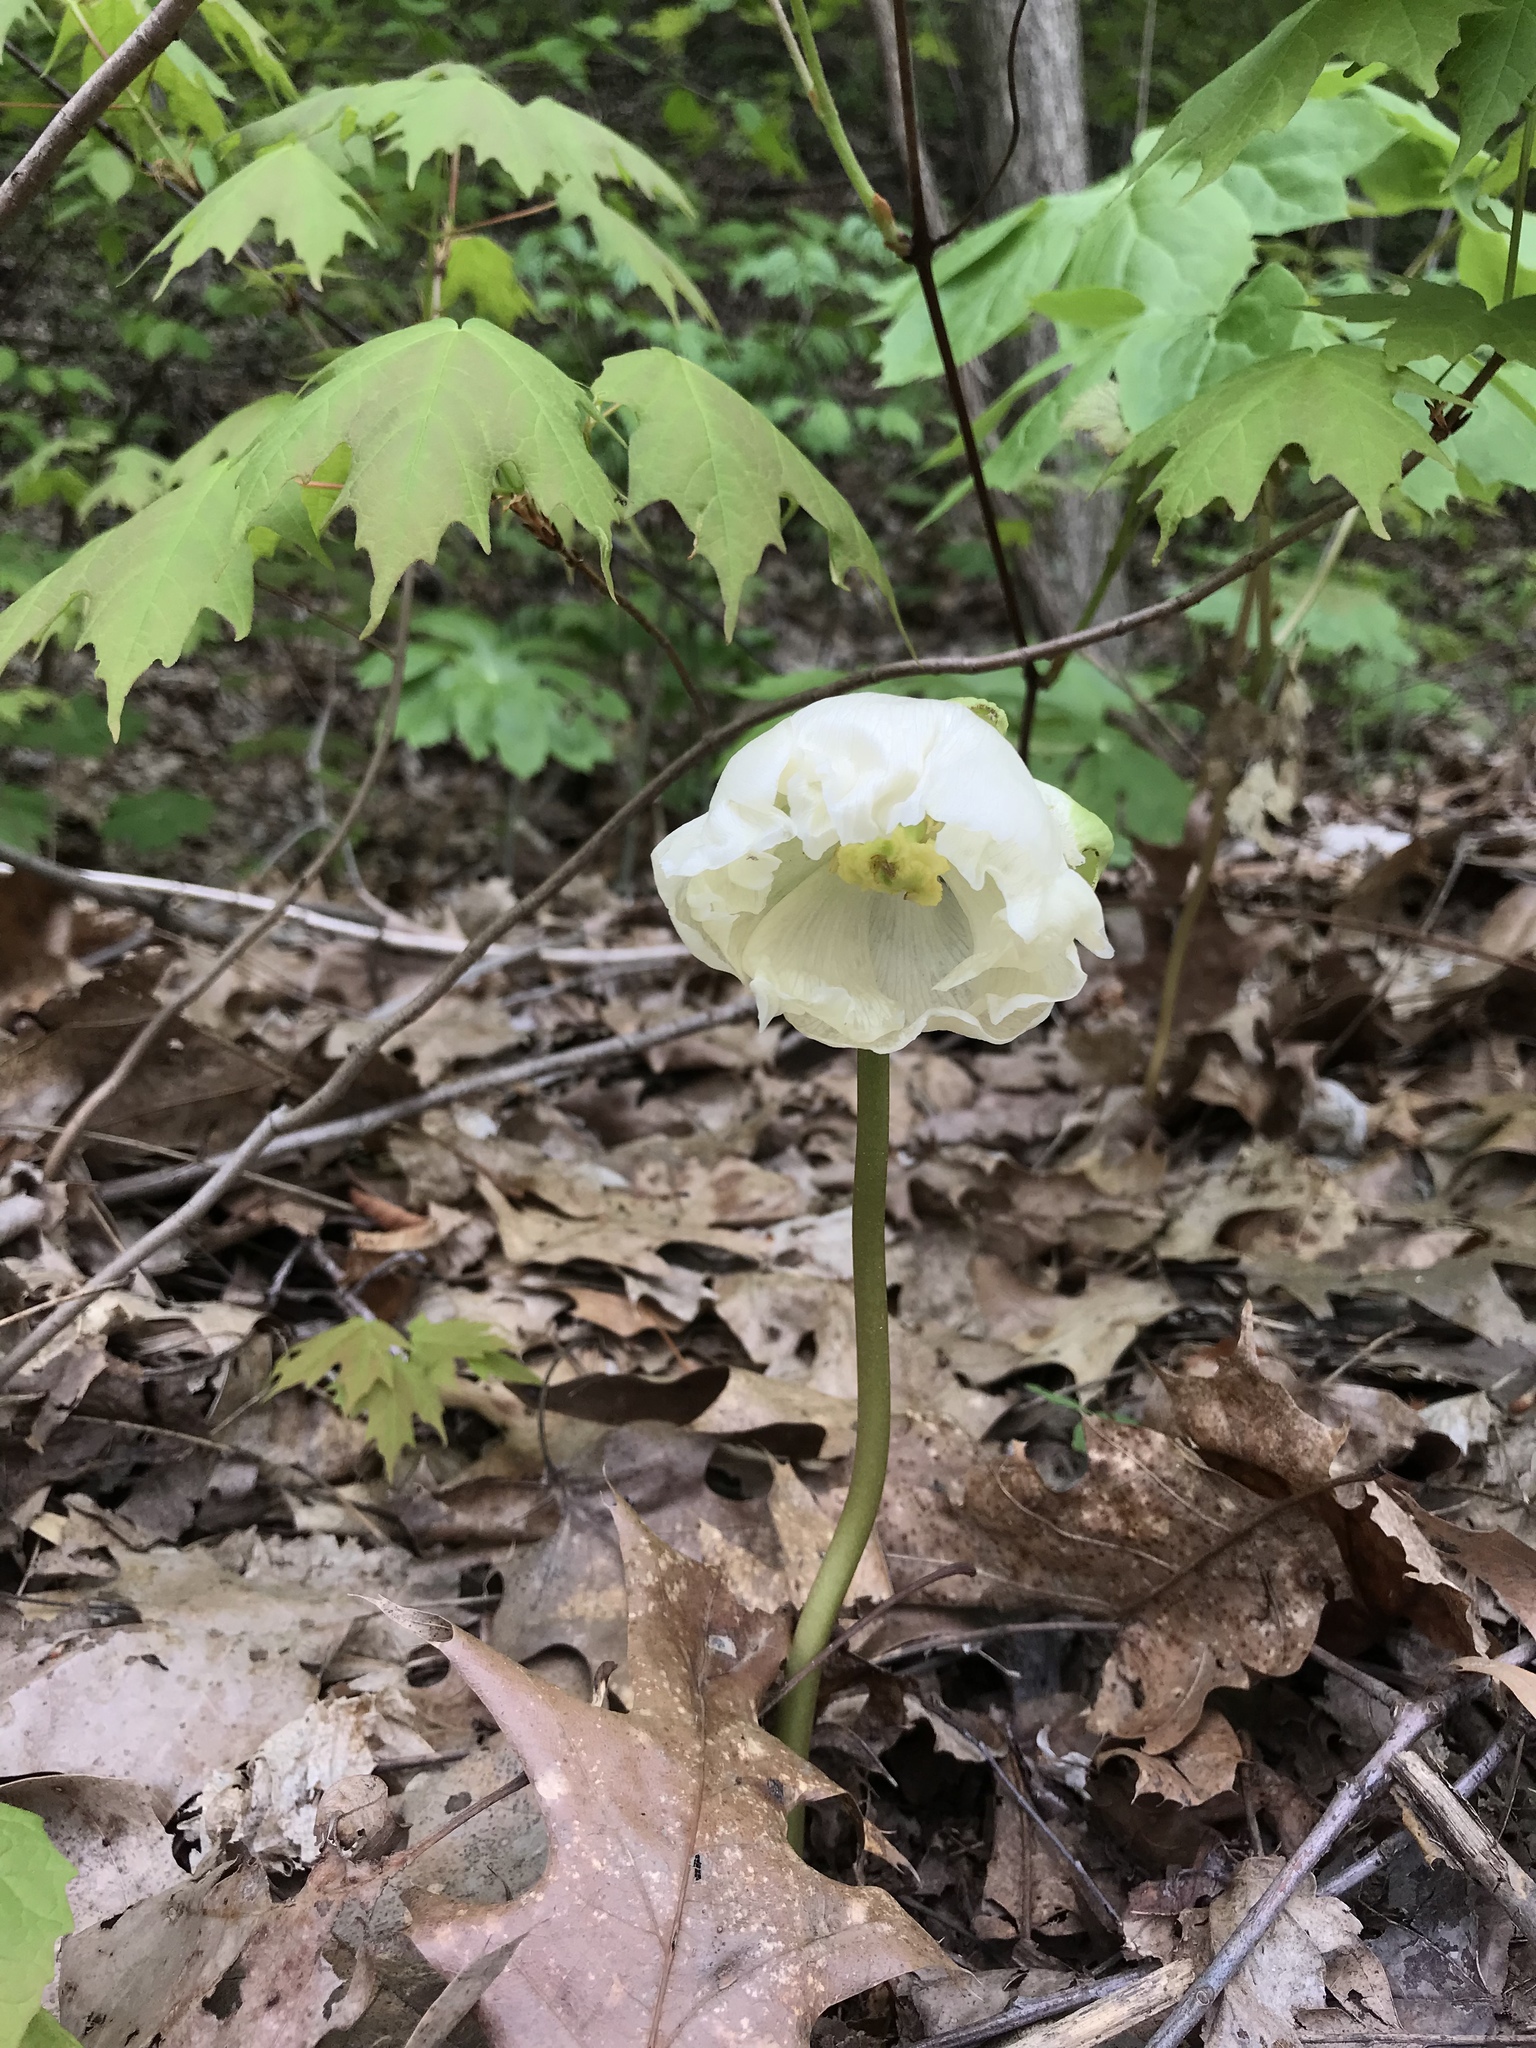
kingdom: Plantae
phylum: Tracheophyta
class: Magnoliopsida
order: Ranunculales
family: Berberidaceae
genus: Podophyllum
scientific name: Podophyllum peltatum
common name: Wild mandrake
